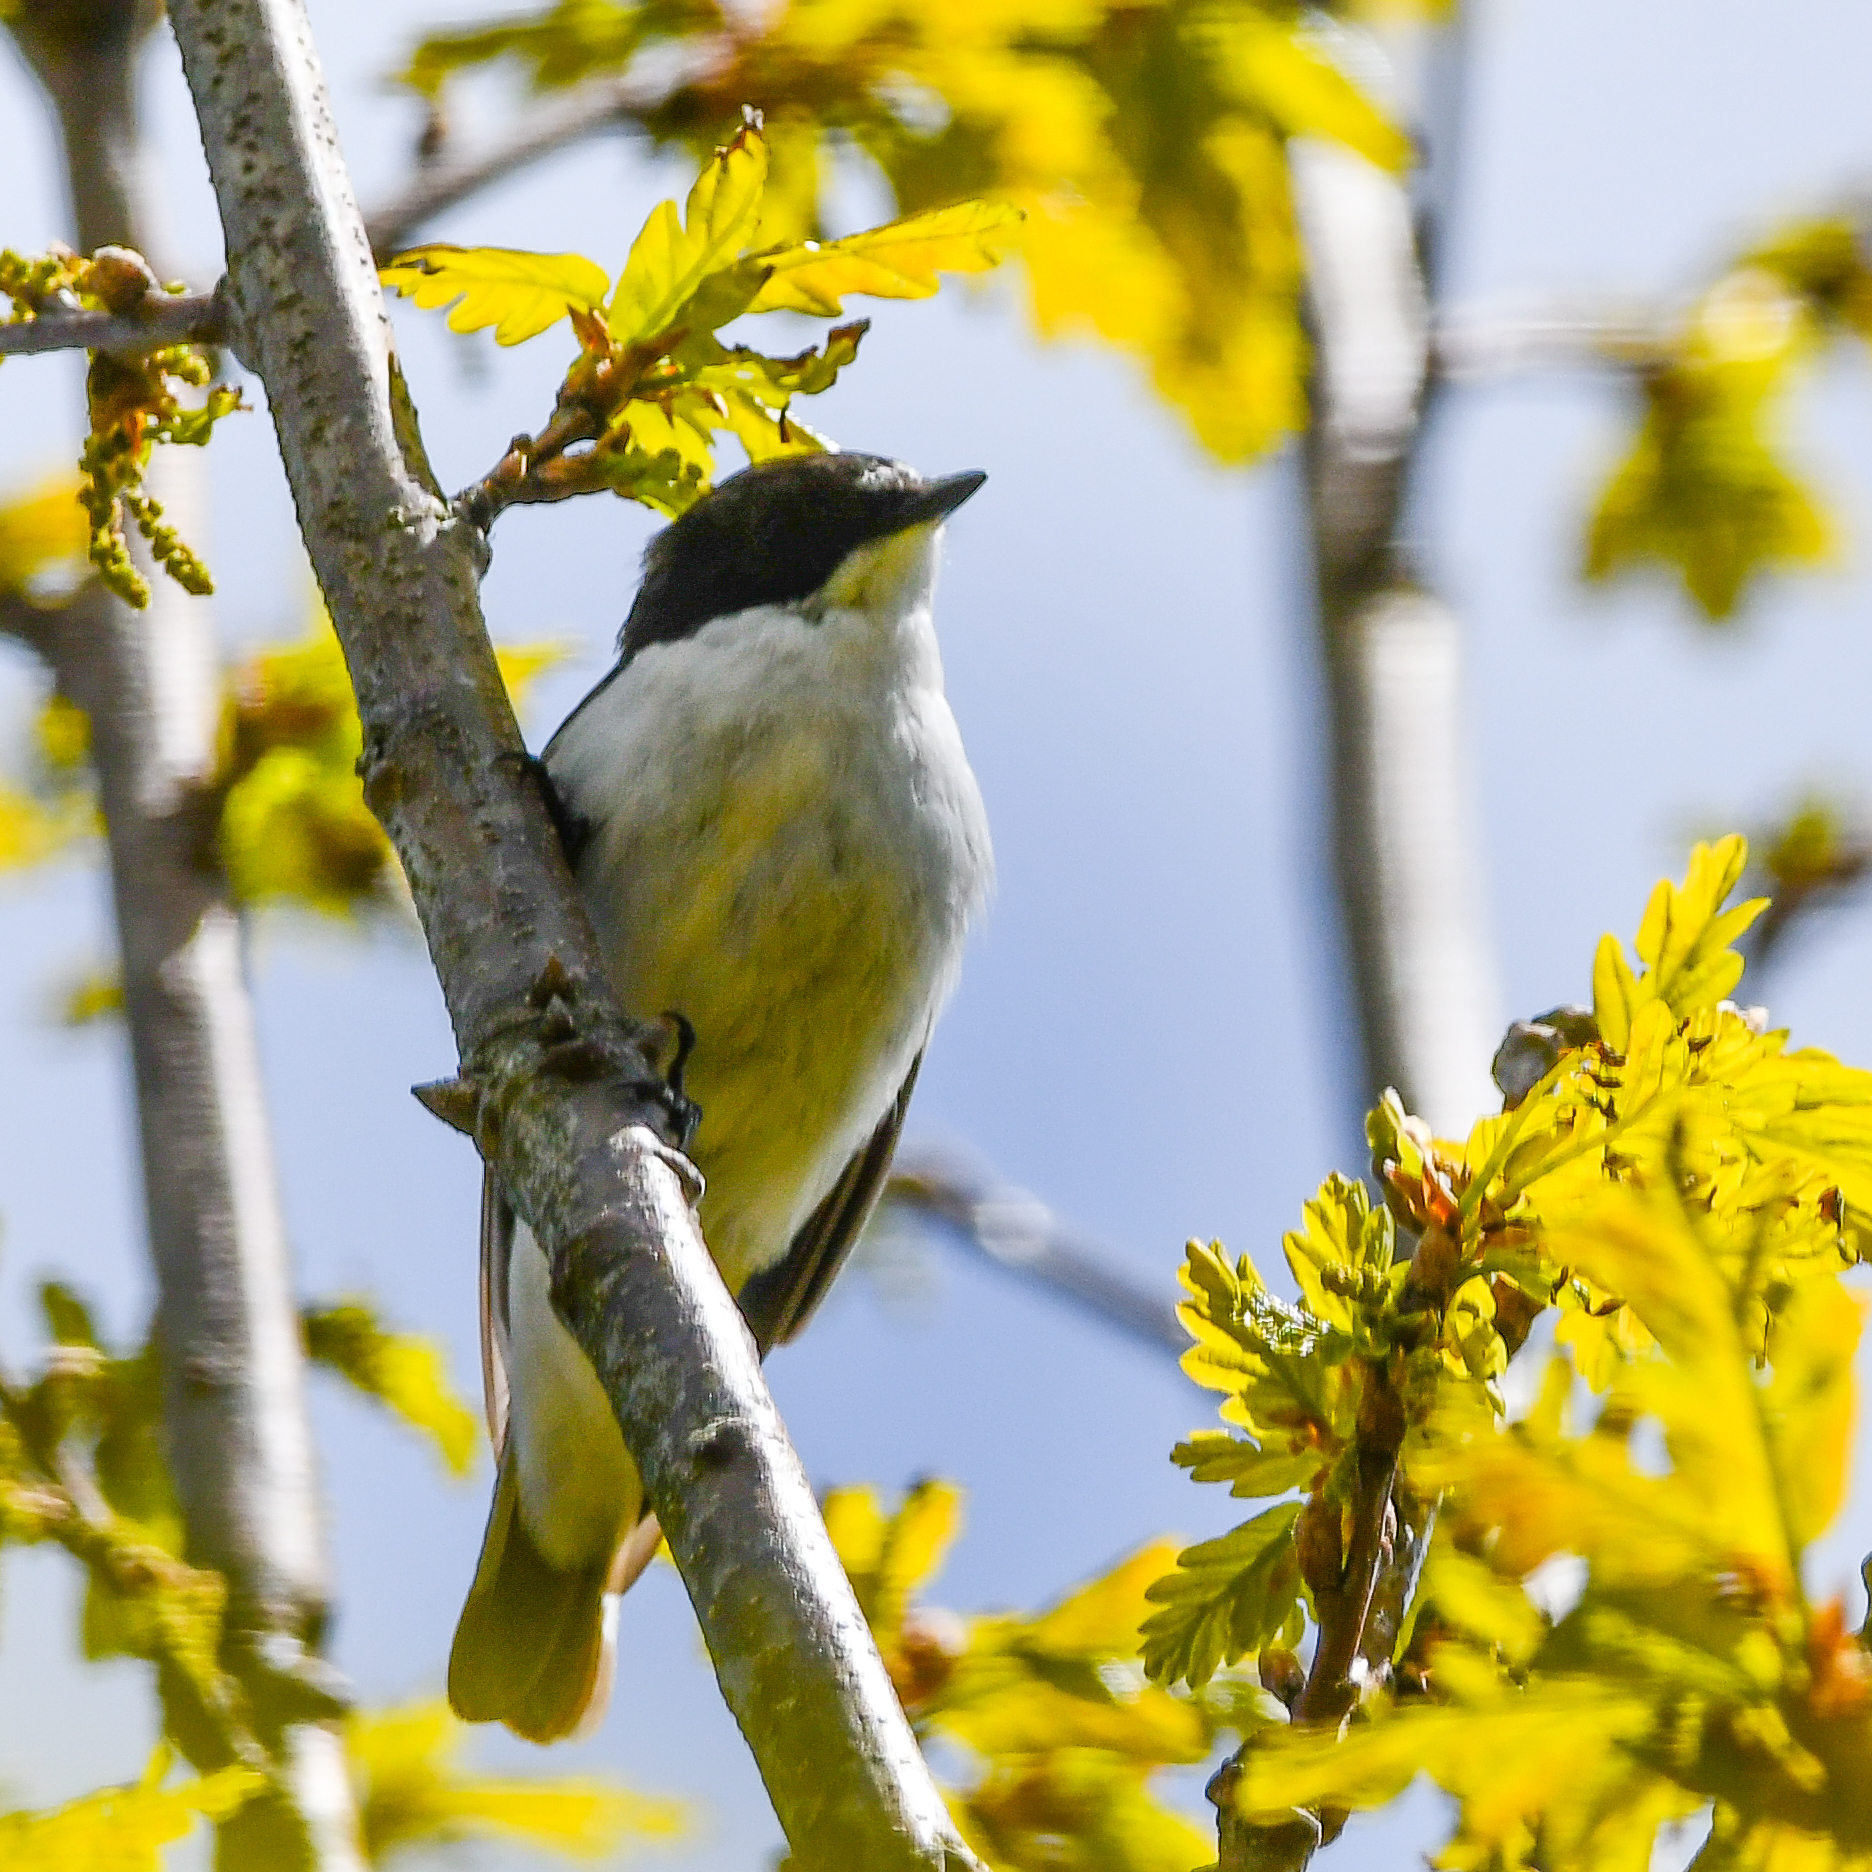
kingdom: Animalia
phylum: Chordata
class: Aves
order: Passeriformes
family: Muscicapidae
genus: Ficedula
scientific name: Ficedula hypoleuca
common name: European pied flycatcher
